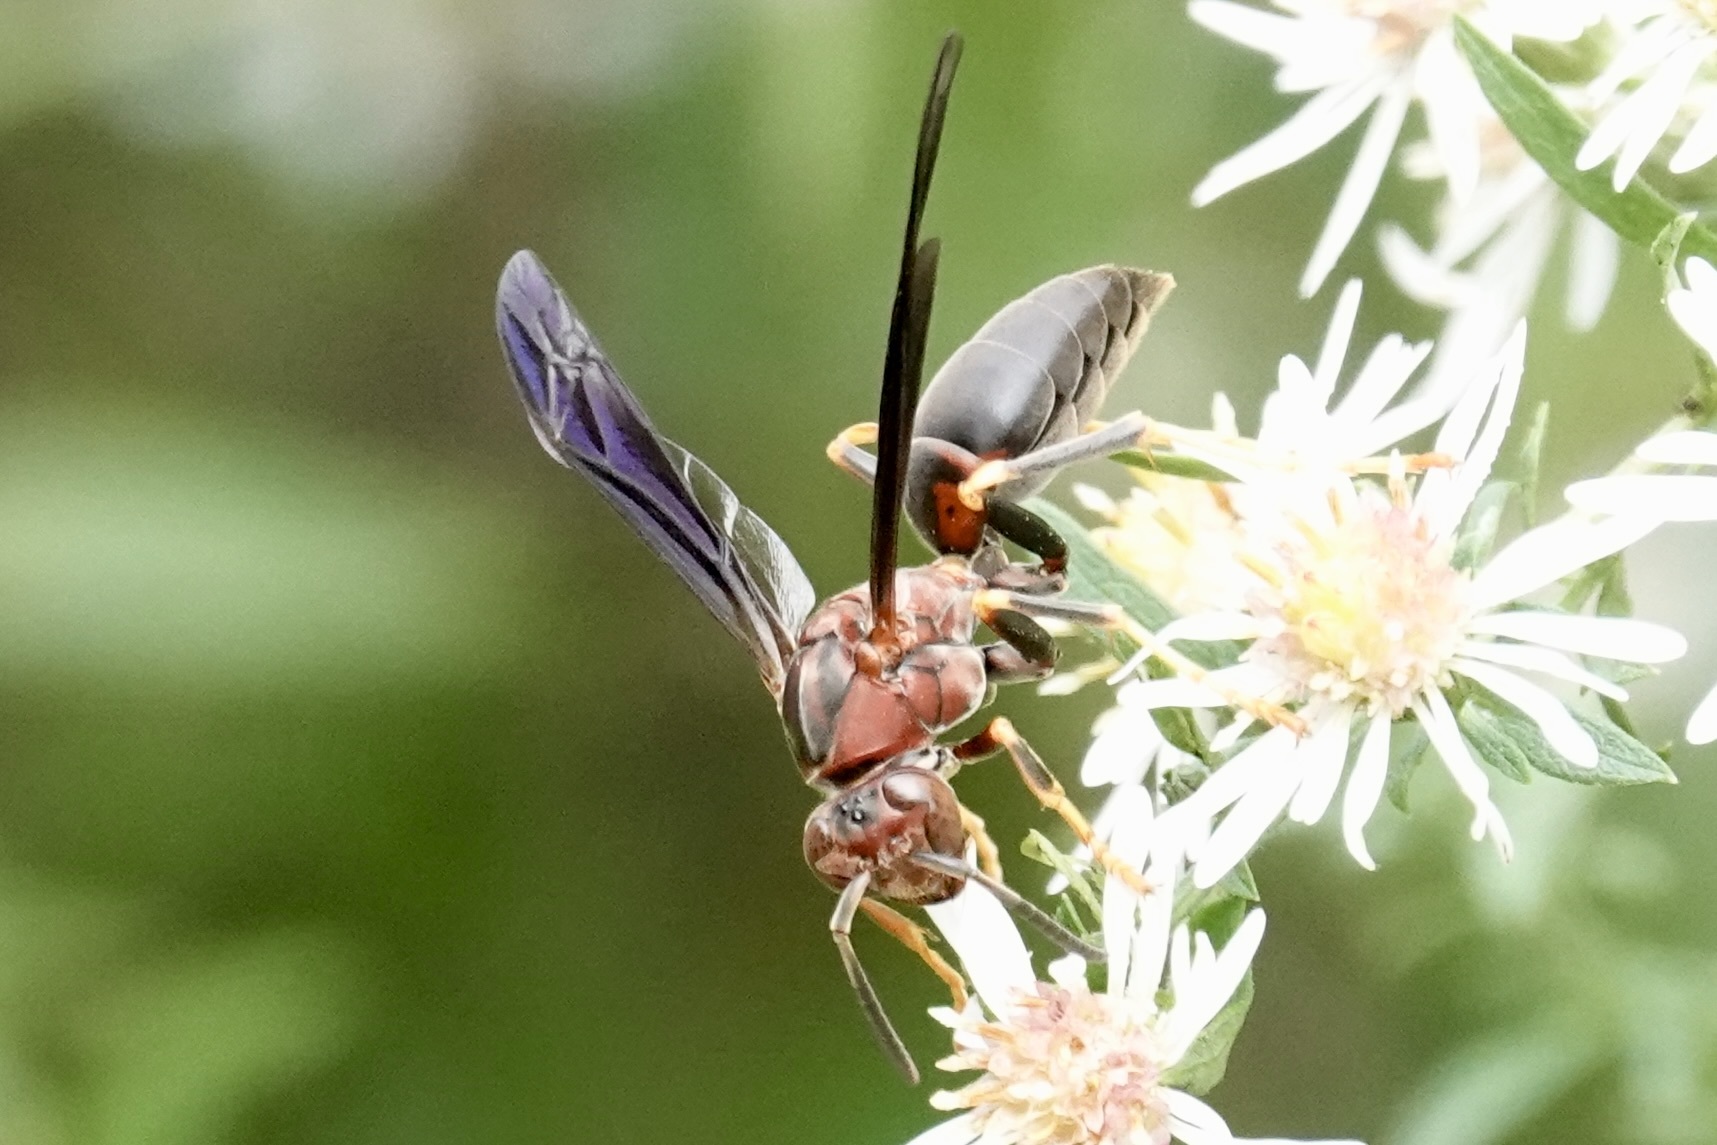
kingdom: Animalia
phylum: Arthropoda
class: Insecta
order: Hymenoptera
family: Eumenidae
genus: Polistes
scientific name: Polistes metricus
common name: Metric paper wasp
